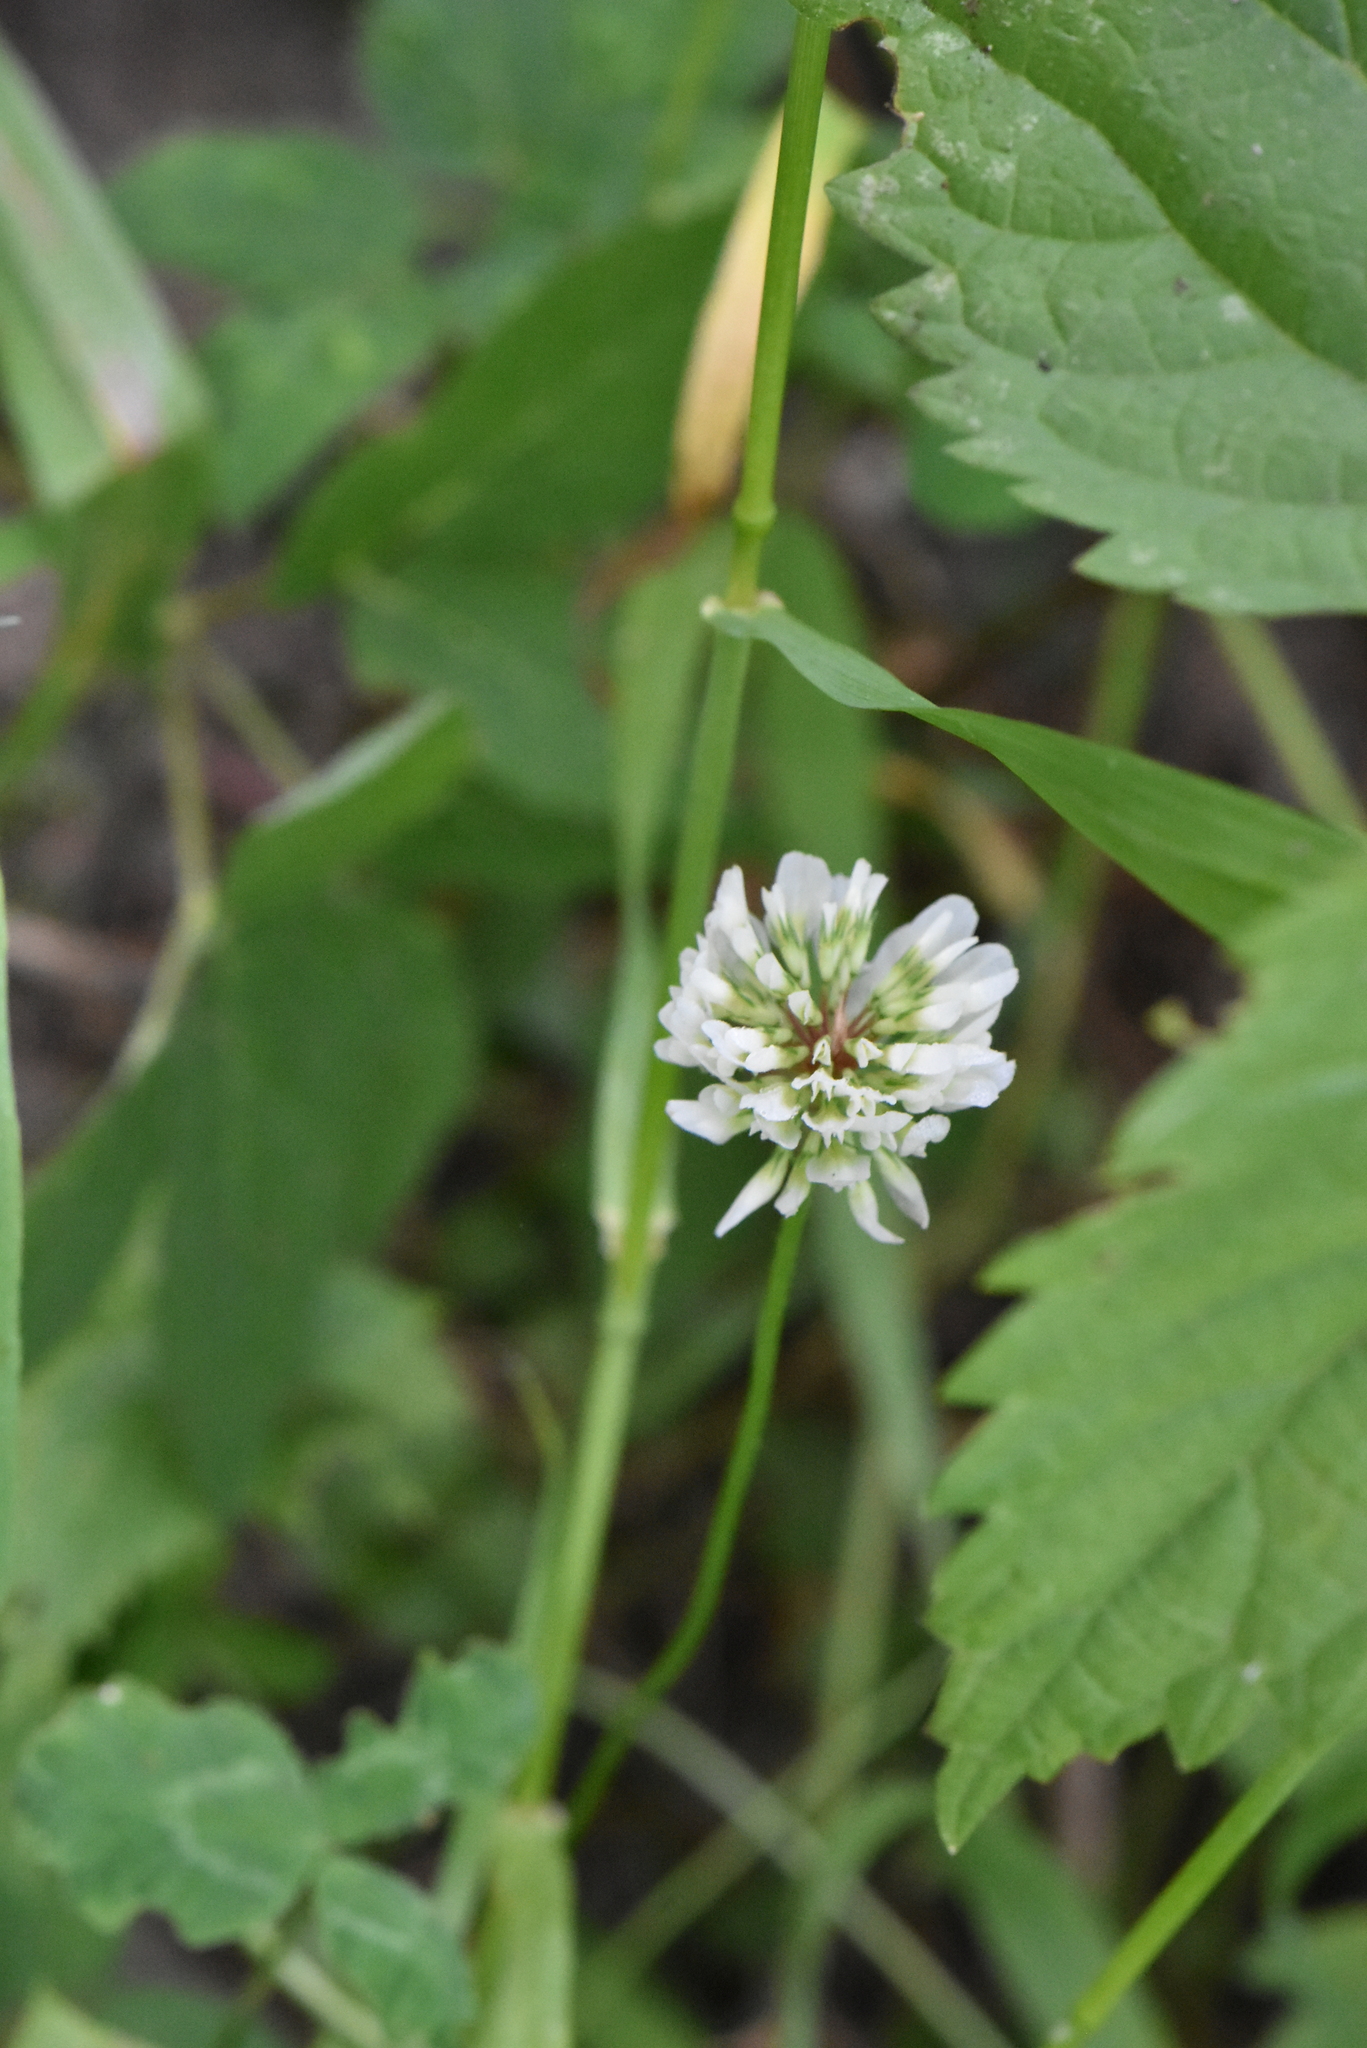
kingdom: Plantae
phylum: Tracheophyta
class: Magnoliopsida
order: Fabales
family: Fabaceae
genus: Trifolium
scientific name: Trifolium repens
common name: White clover
